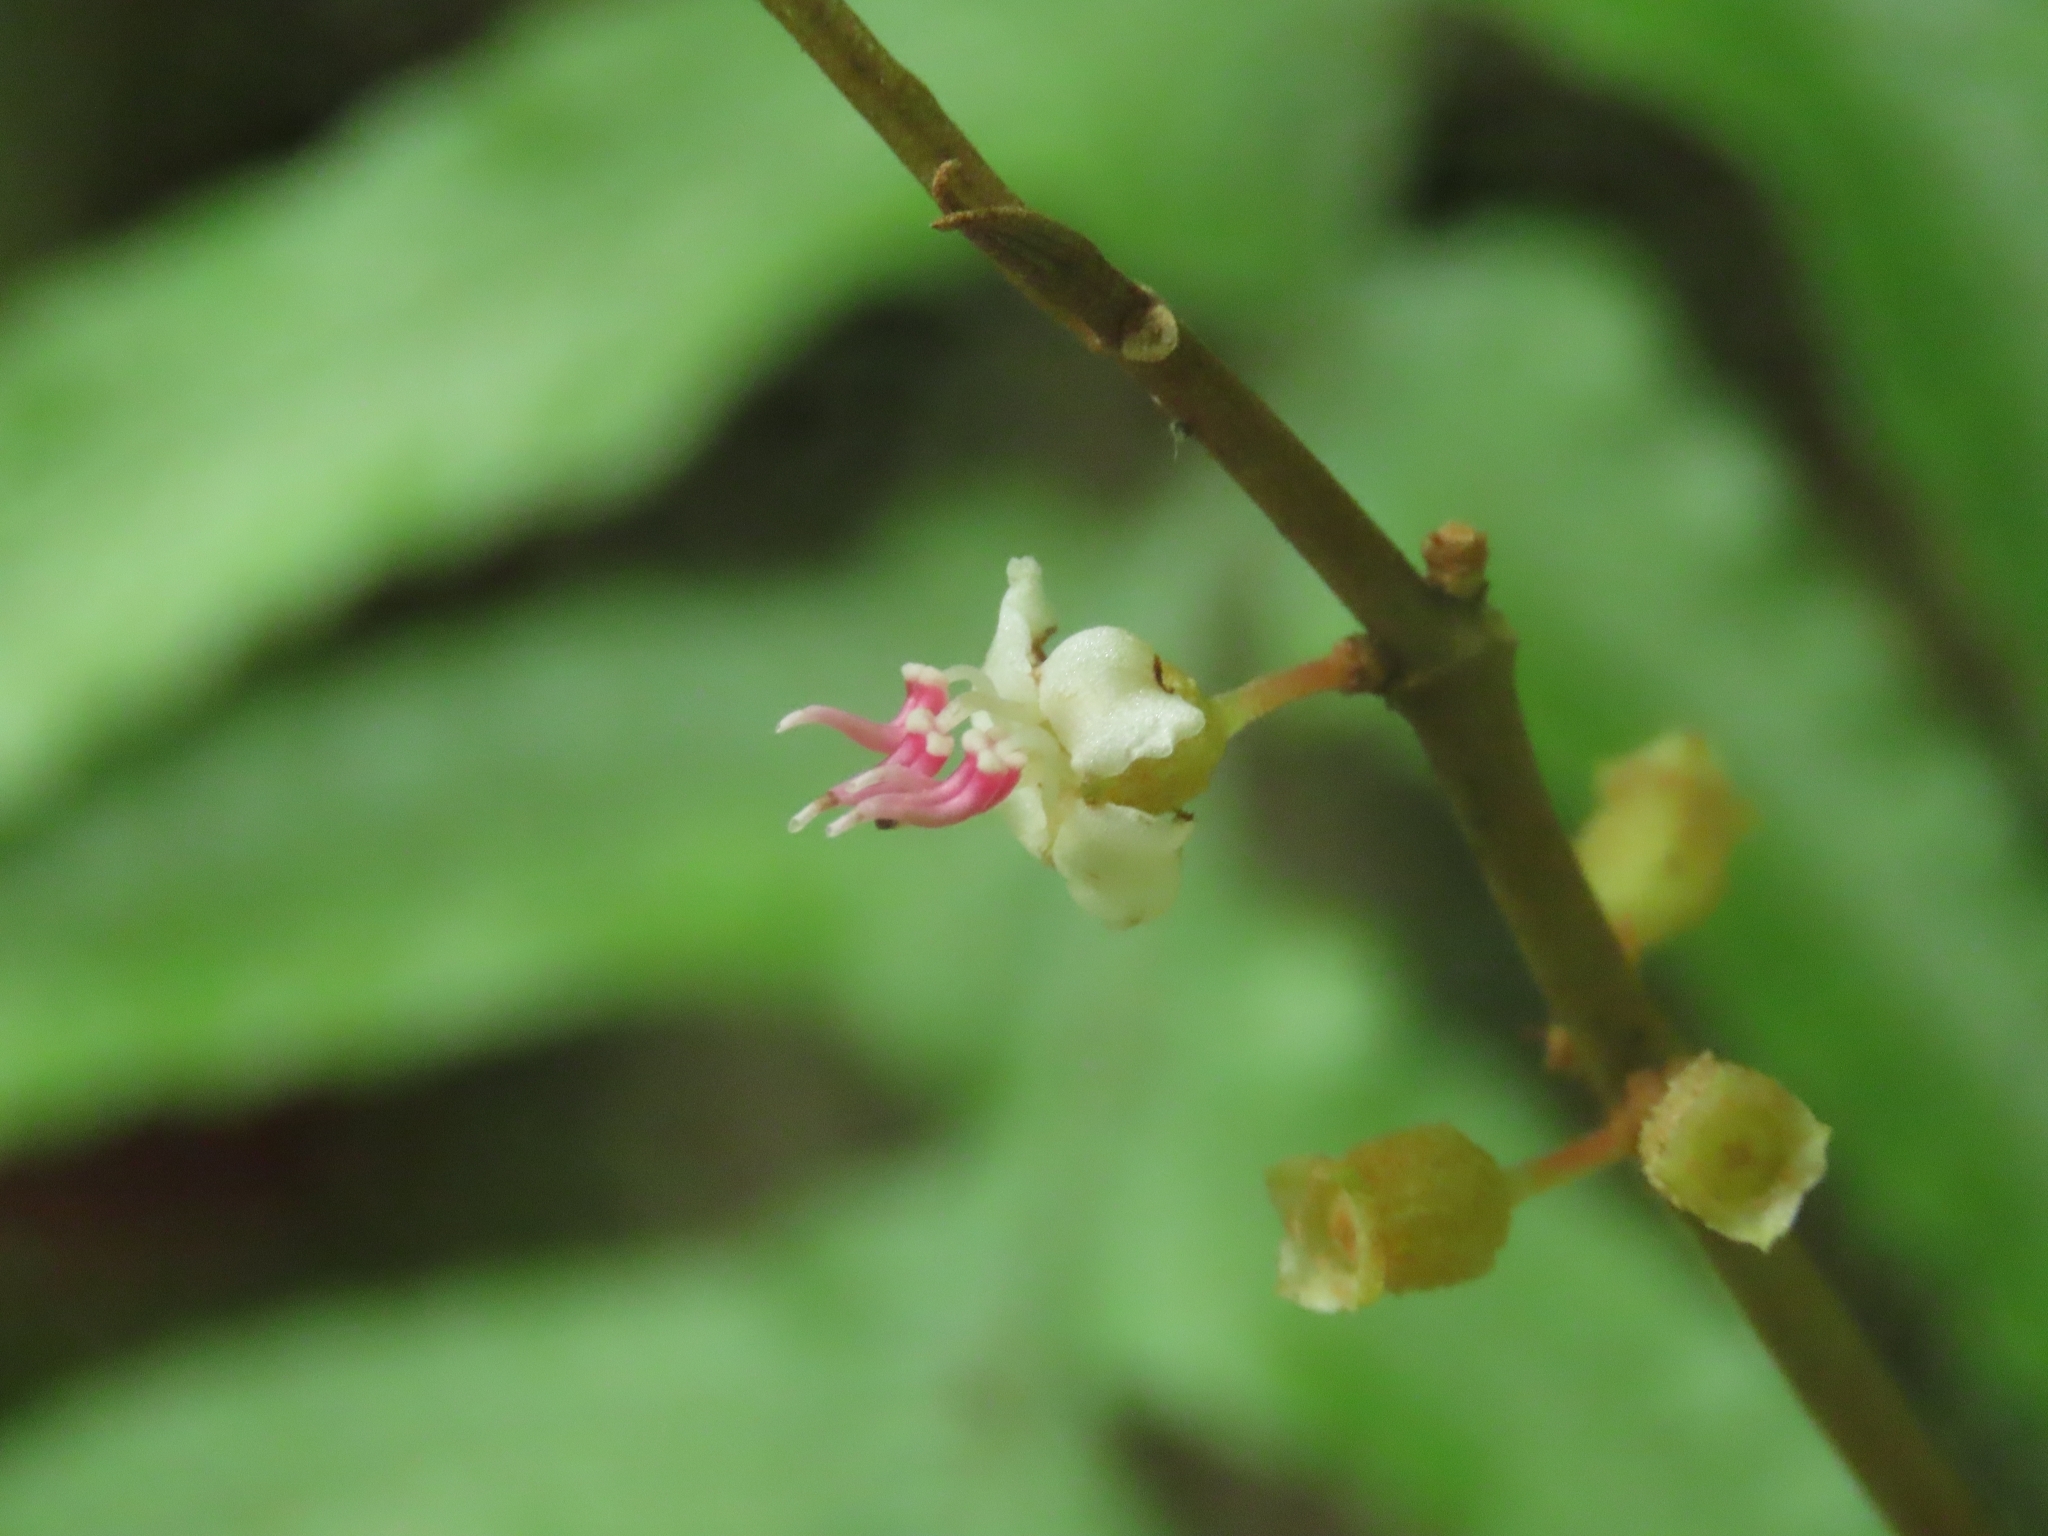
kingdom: Plantae
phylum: Tracheophyta
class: Magnoliopsida
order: Myrtales
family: Melastomataceae
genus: Blastus
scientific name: Blastus cochinchinensis
